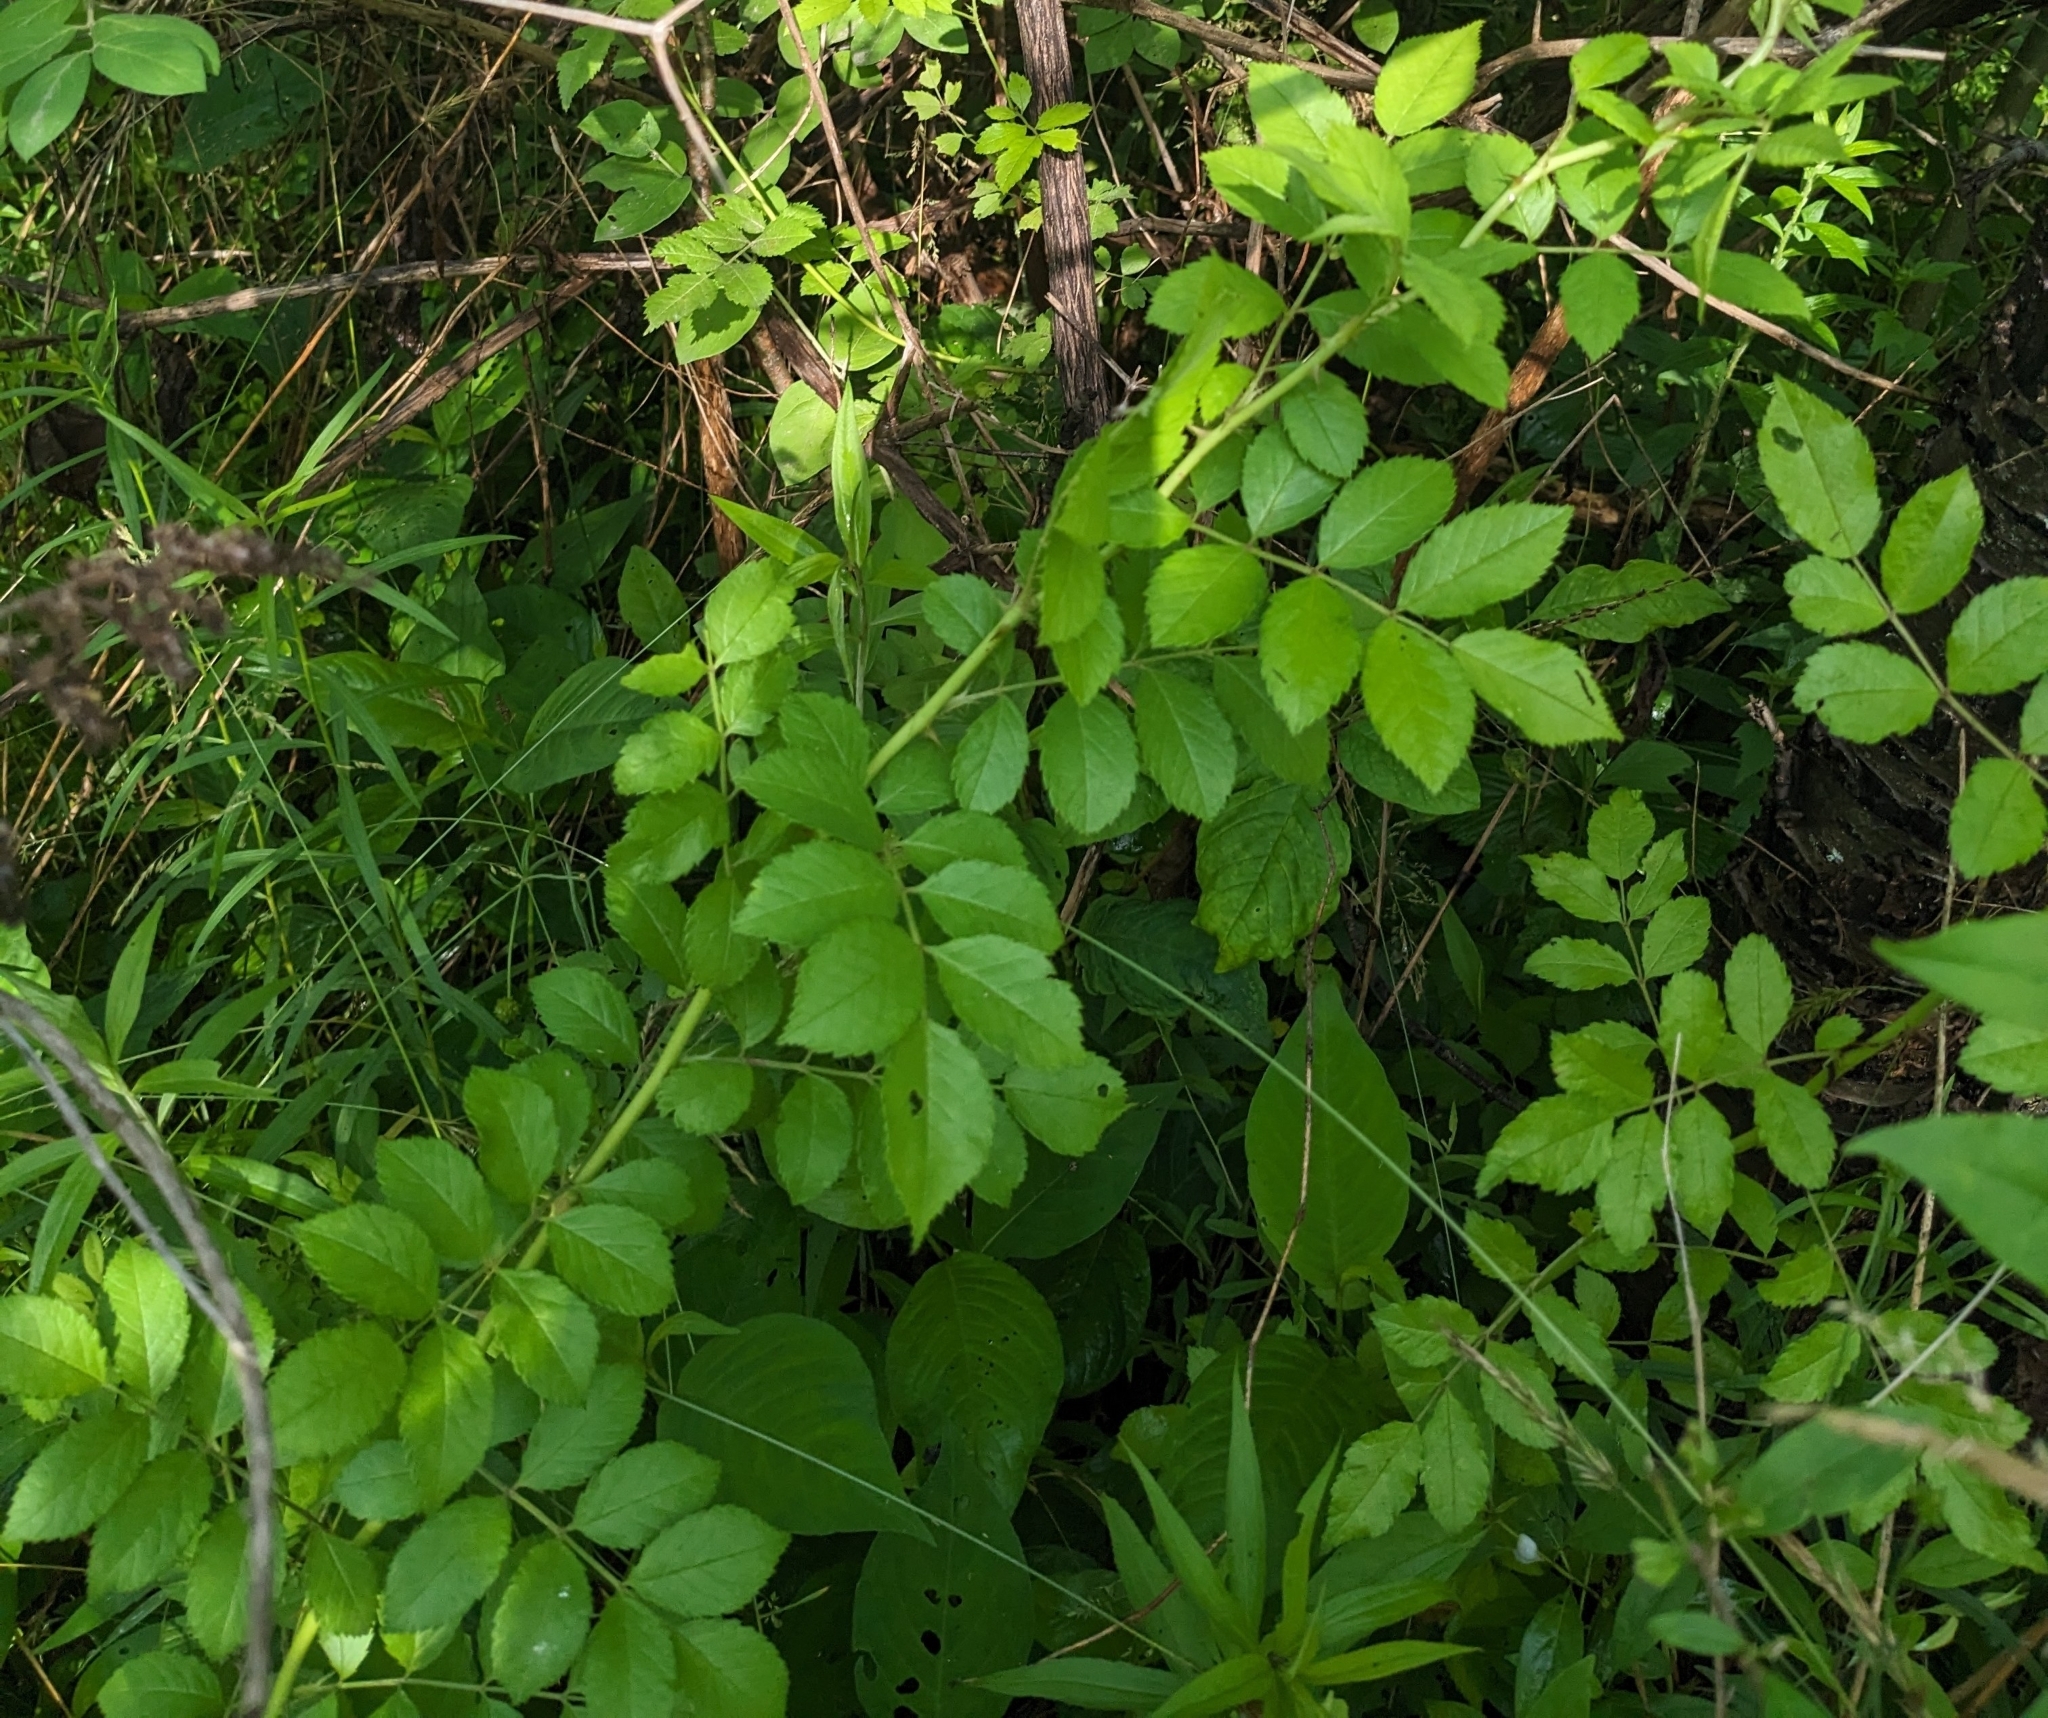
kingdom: Plantae
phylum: Tracheophyta
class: Magnoliopsida
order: Rosales
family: Rosaceae
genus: Rosa
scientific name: Rosa multiflora
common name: Multiflora rose
